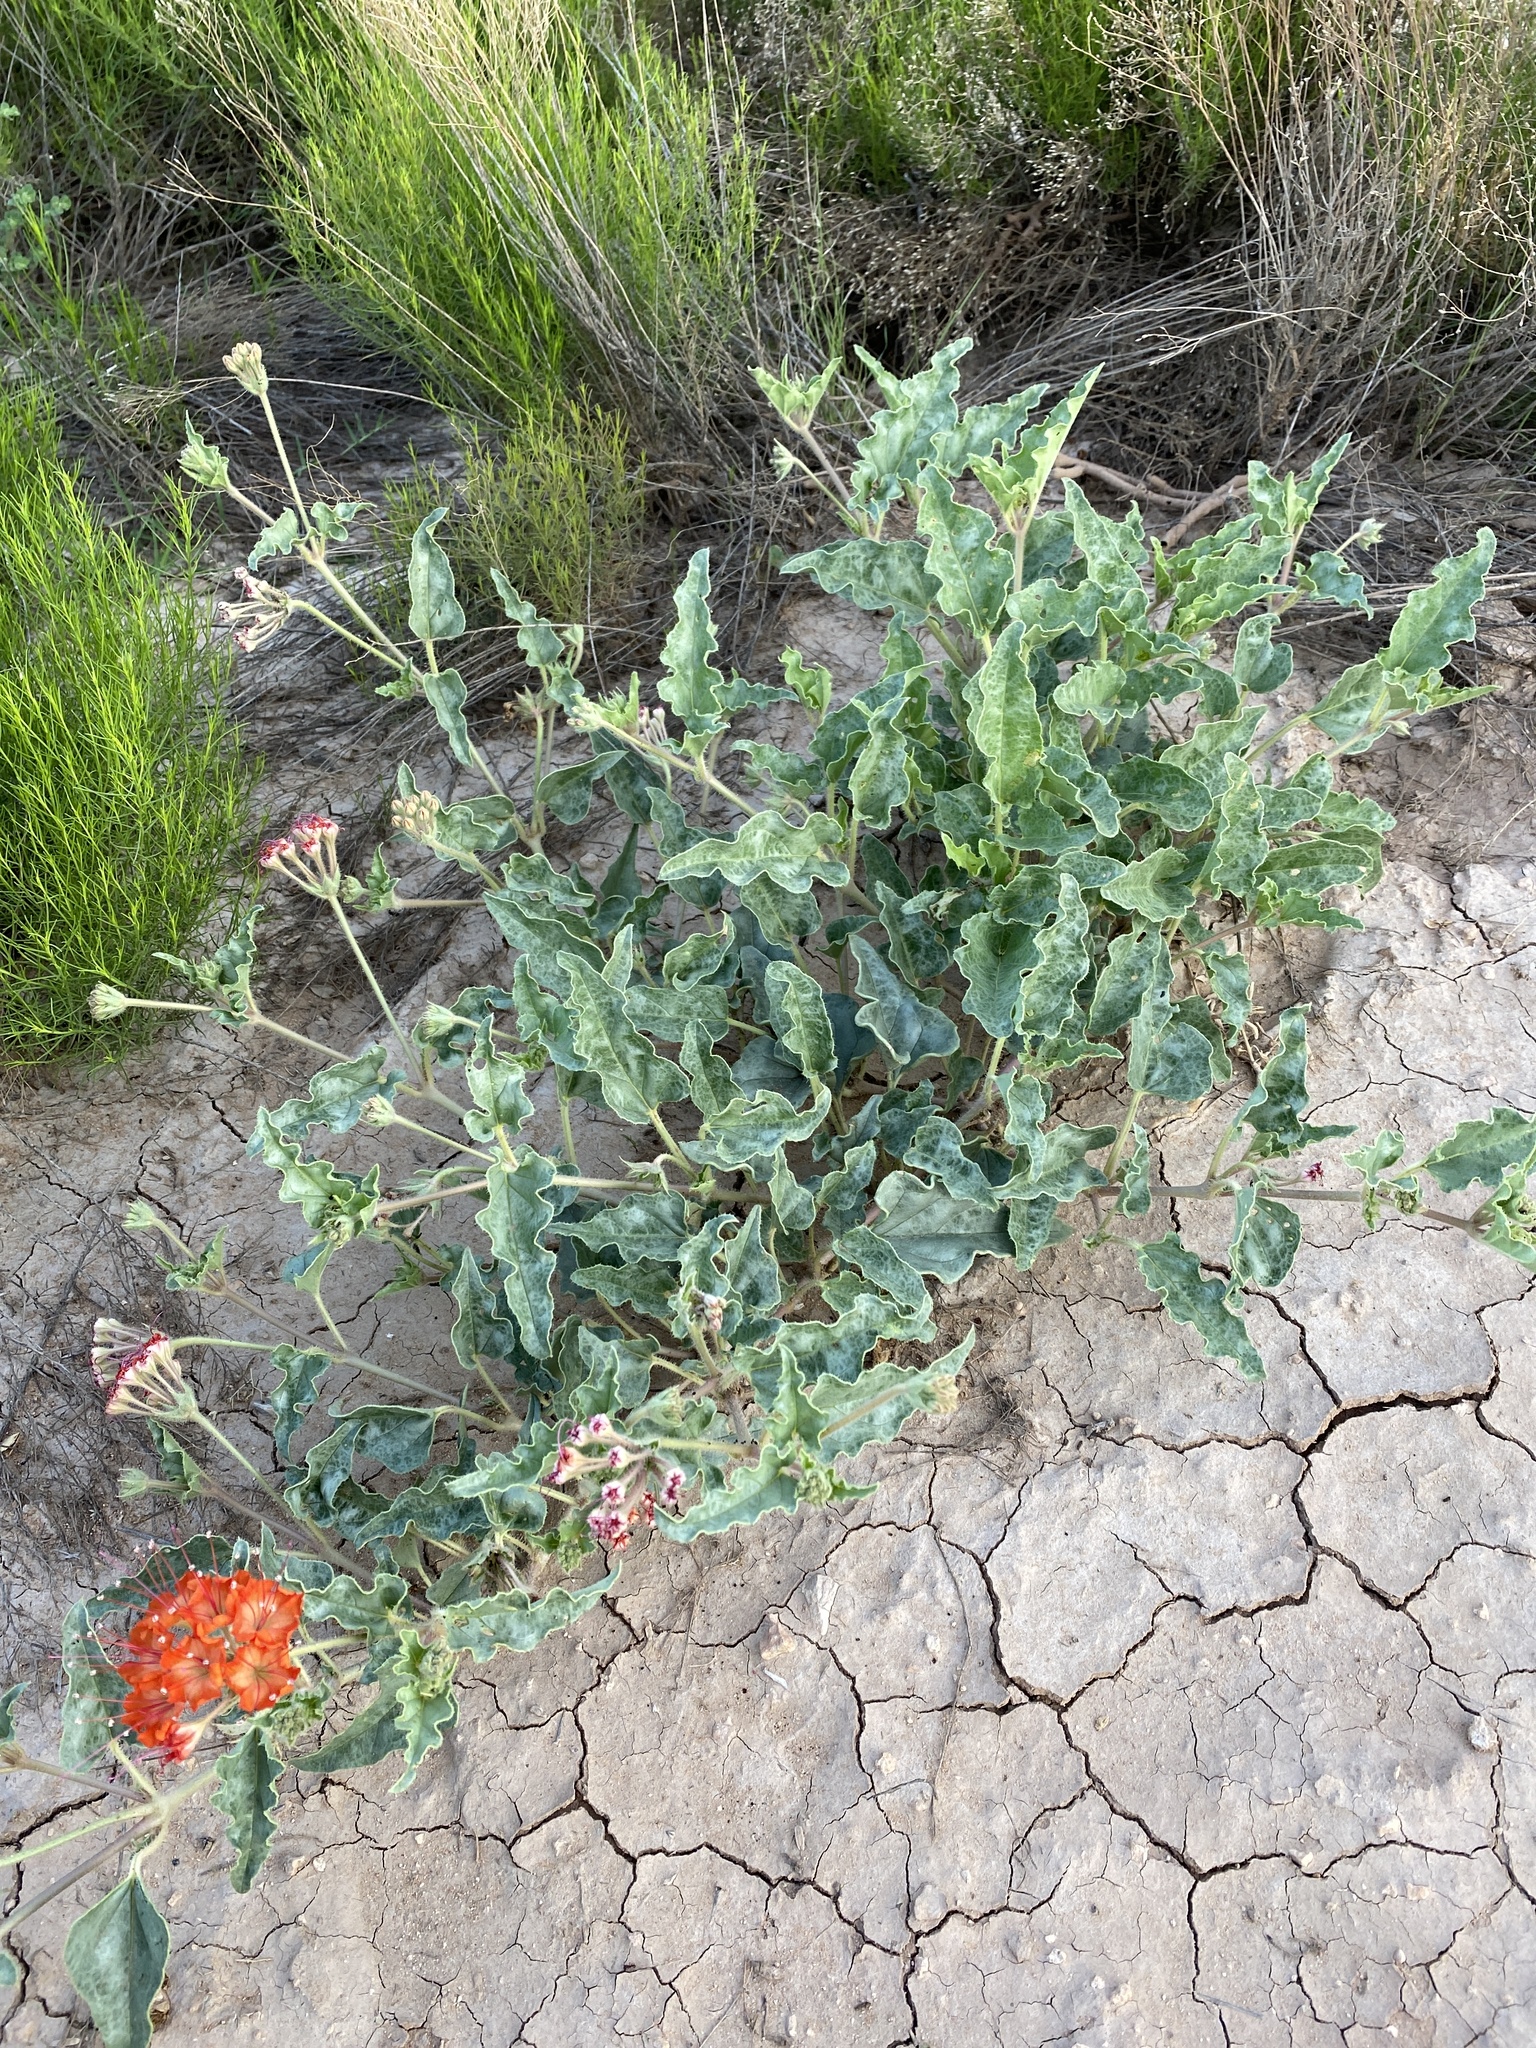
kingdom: Plantae
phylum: Tracheophyta
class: Magnoliopsida
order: Caryophyllales
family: Nyctaginaceae
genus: Nyctaginia
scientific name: Nyctaginia capitata
